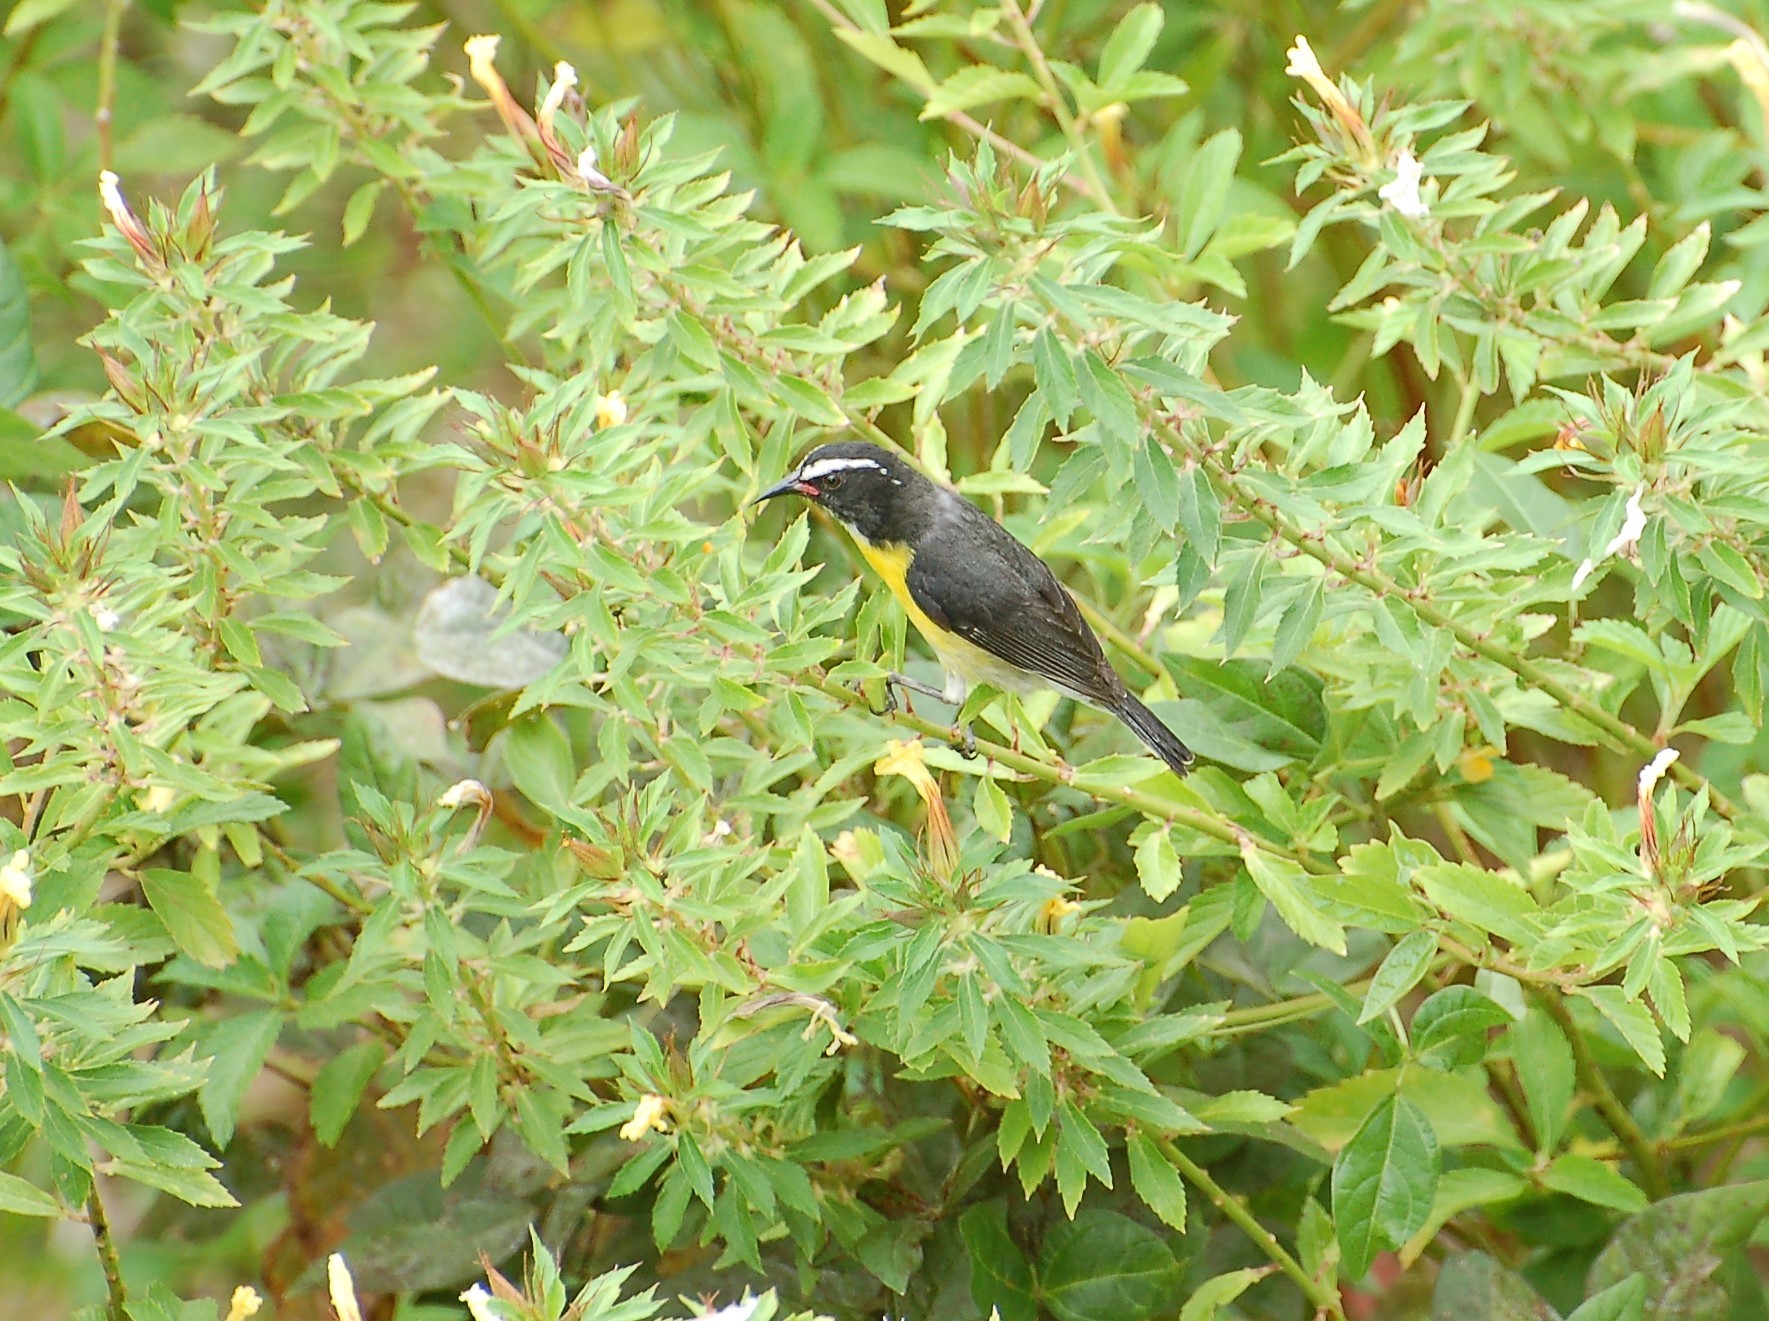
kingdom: Animalia
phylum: Chordata
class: Aves
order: Passeriformes
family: Thraupidae
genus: Coereba
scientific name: Coereba flaveola
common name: Bananaquit
